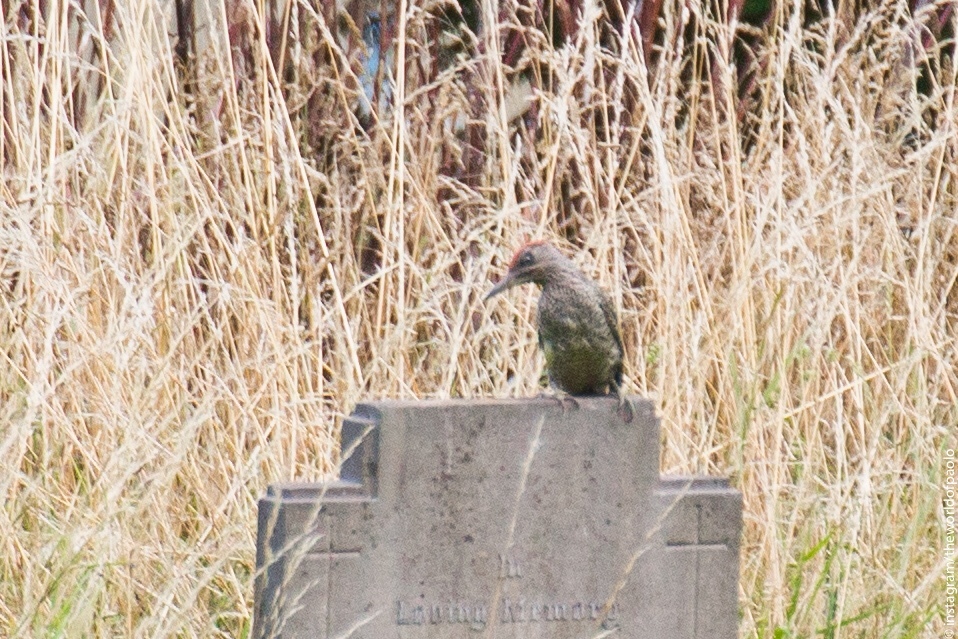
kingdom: Animalia
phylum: Chordata
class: Aves
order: Piciformes
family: Picidae
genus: Picus
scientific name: Picus viridis
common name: European green woodpecker
